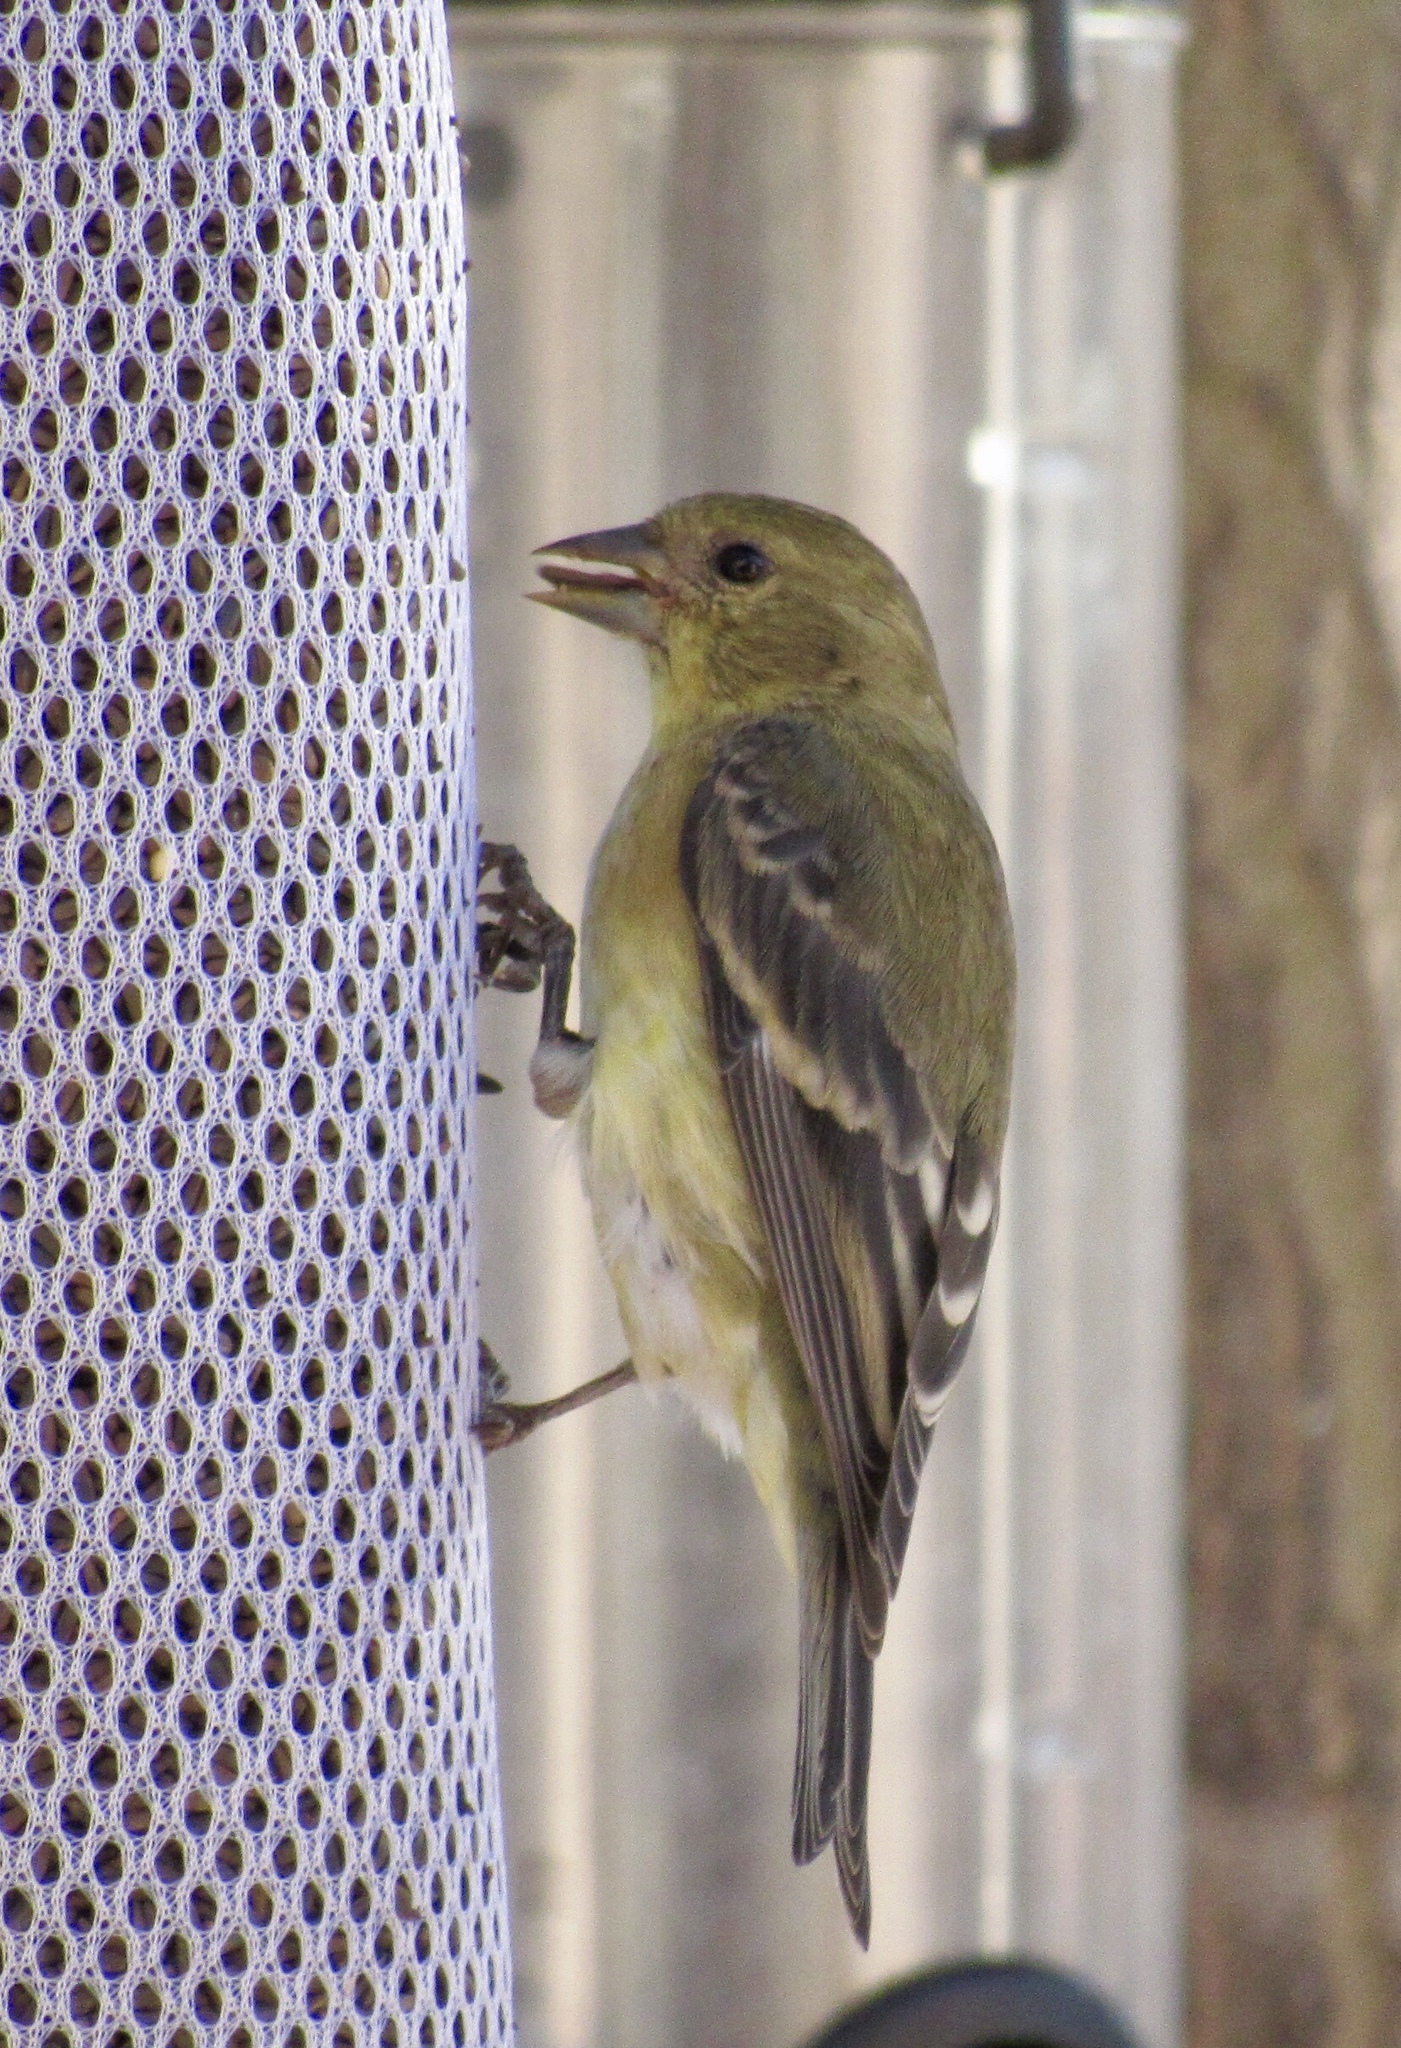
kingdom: Animalia
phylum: Chordata
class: Aves
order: Passeriformes
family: Fringillidae
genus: Spinus
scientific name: Spinus psaltria
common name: Lesser goldfinch
